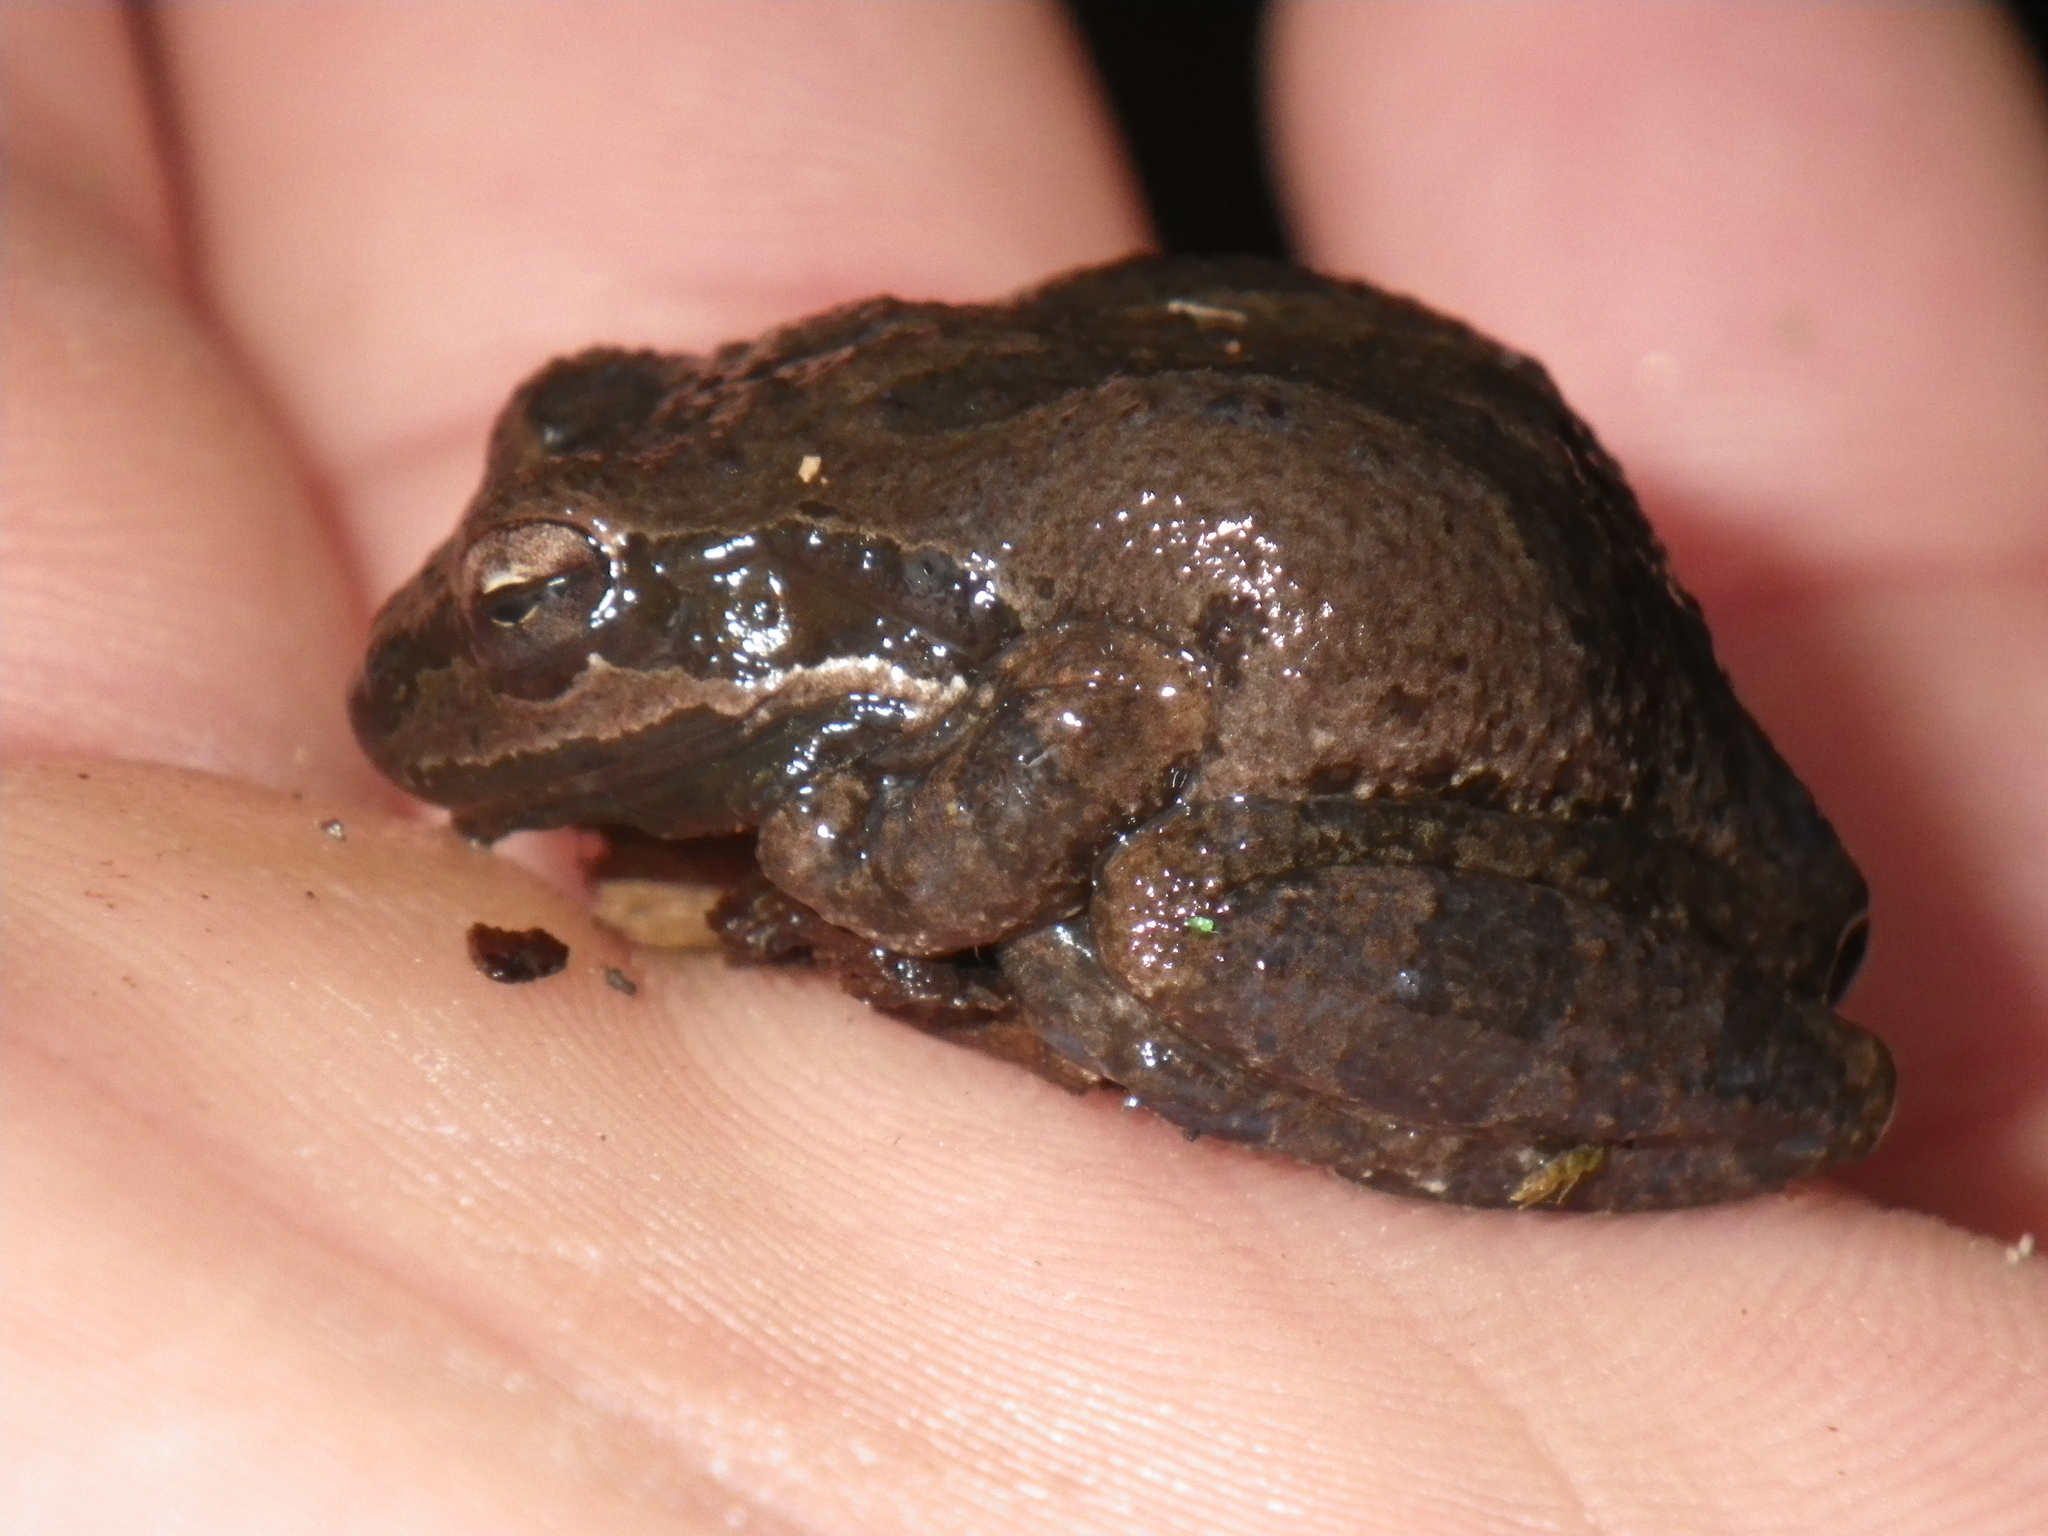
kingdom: Animalia
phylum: Chordata
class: Amphibia
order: Anura
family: Hylidae
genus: Pseudacris
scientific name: Pseudacris regilla
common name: Pacific chorus frog
